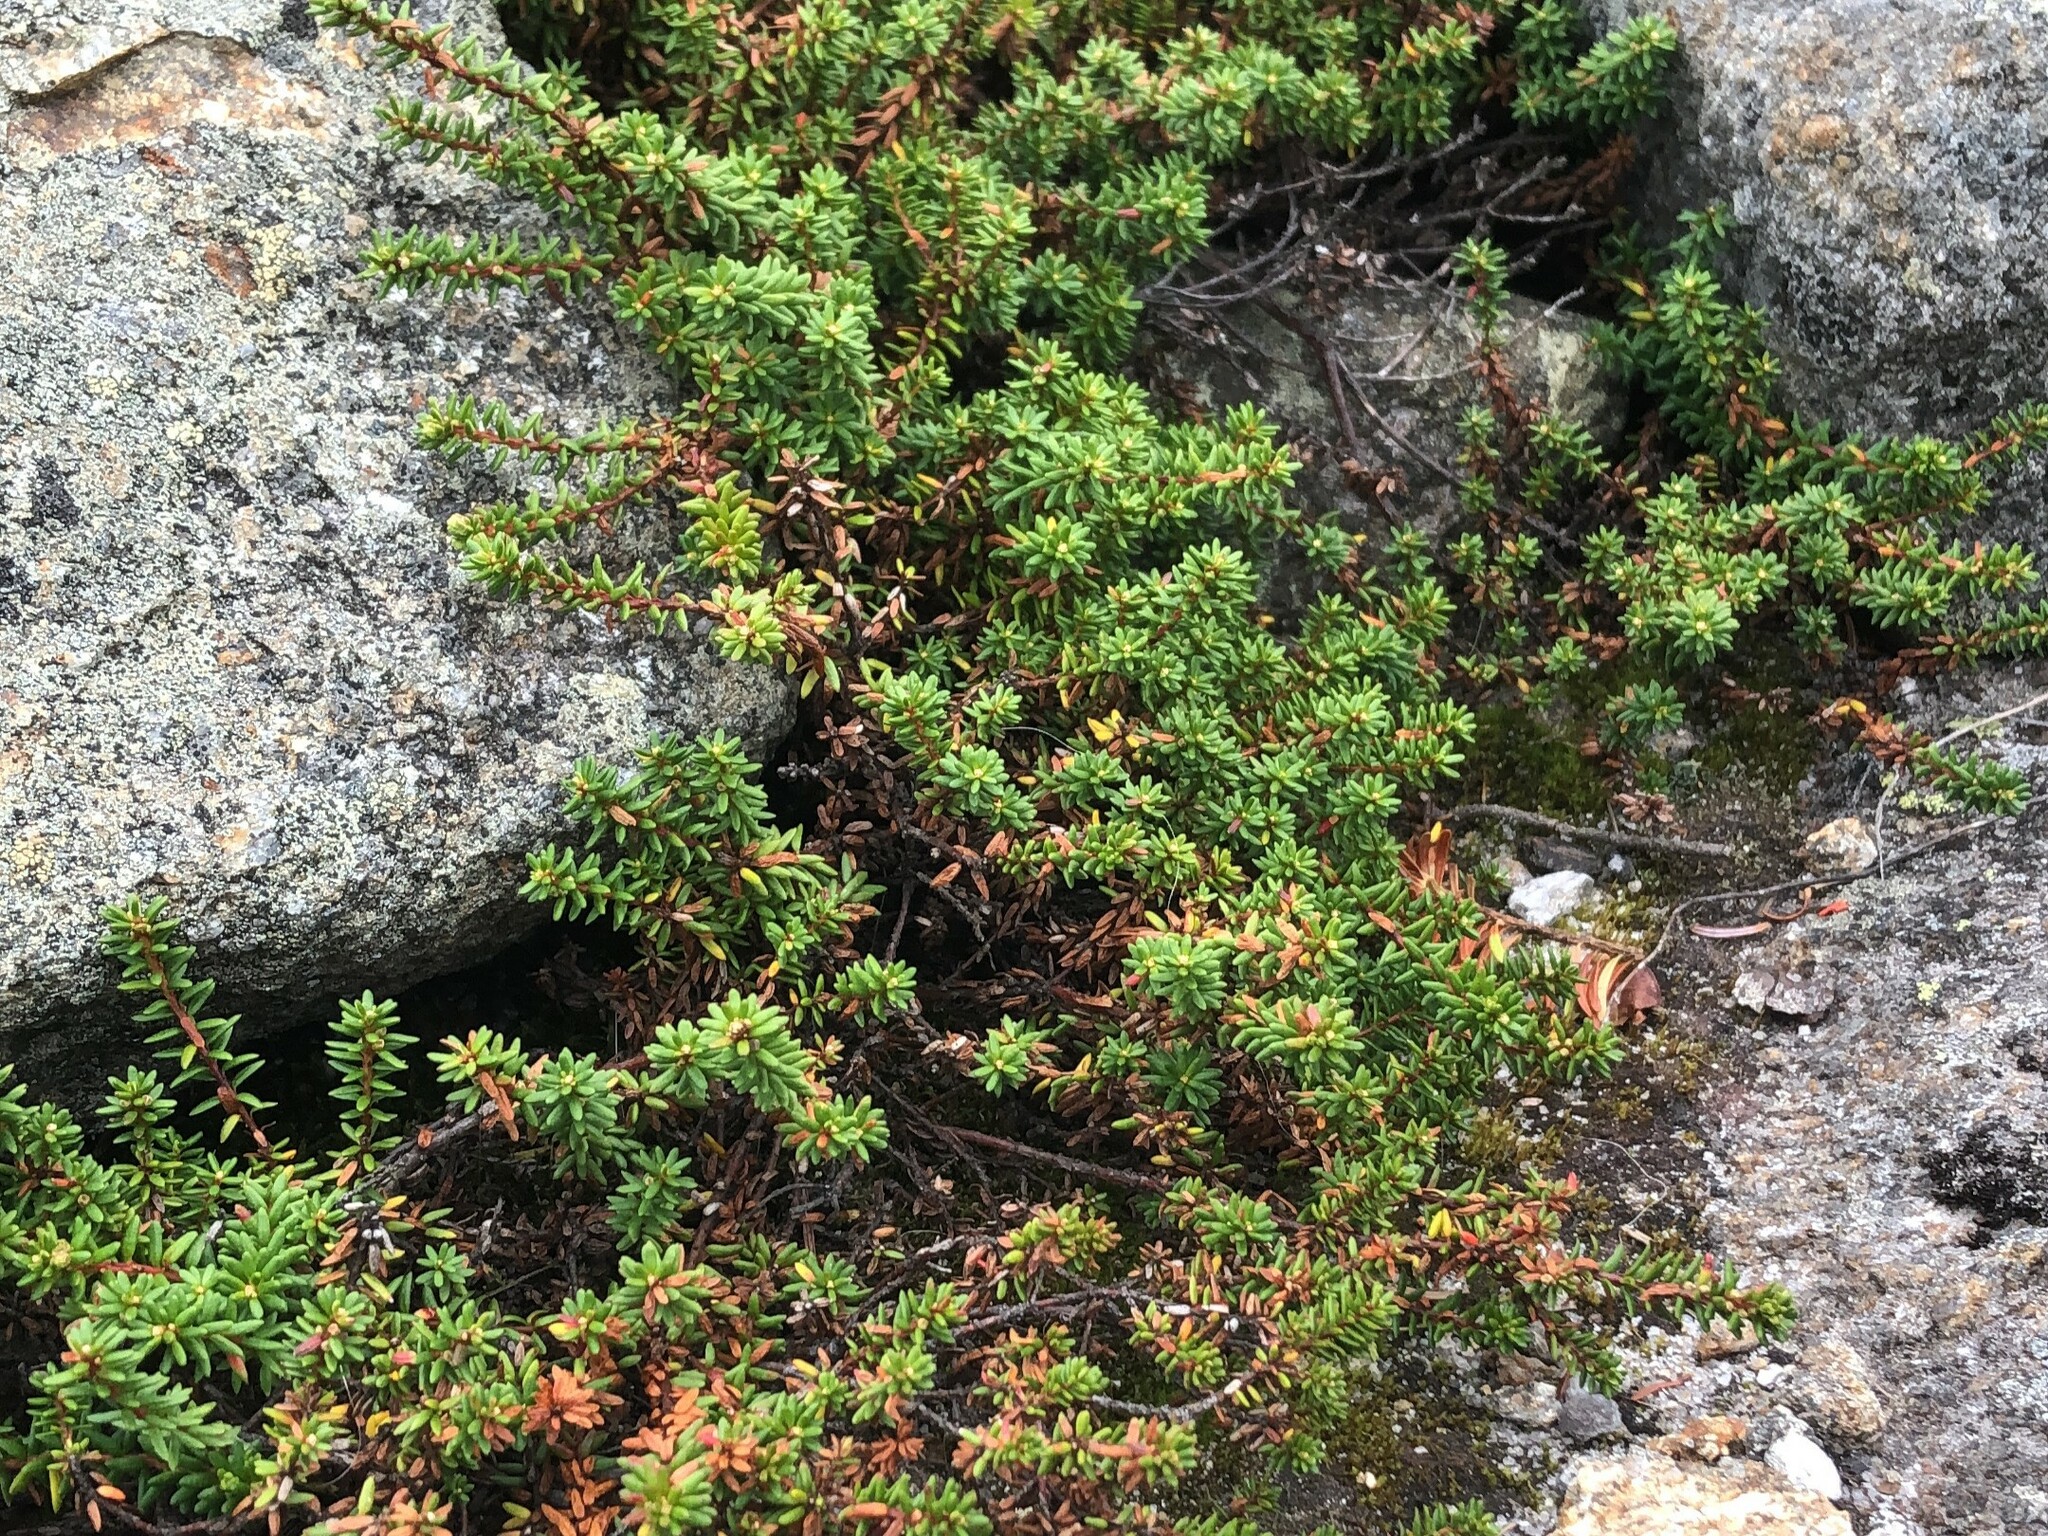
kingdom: Plantae
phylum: Tracheophyta
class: Magnoliopsida
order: Ericales
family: Ericaceae
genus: Empetrum
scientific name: Empetrum nigrum
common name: Black crowberry
